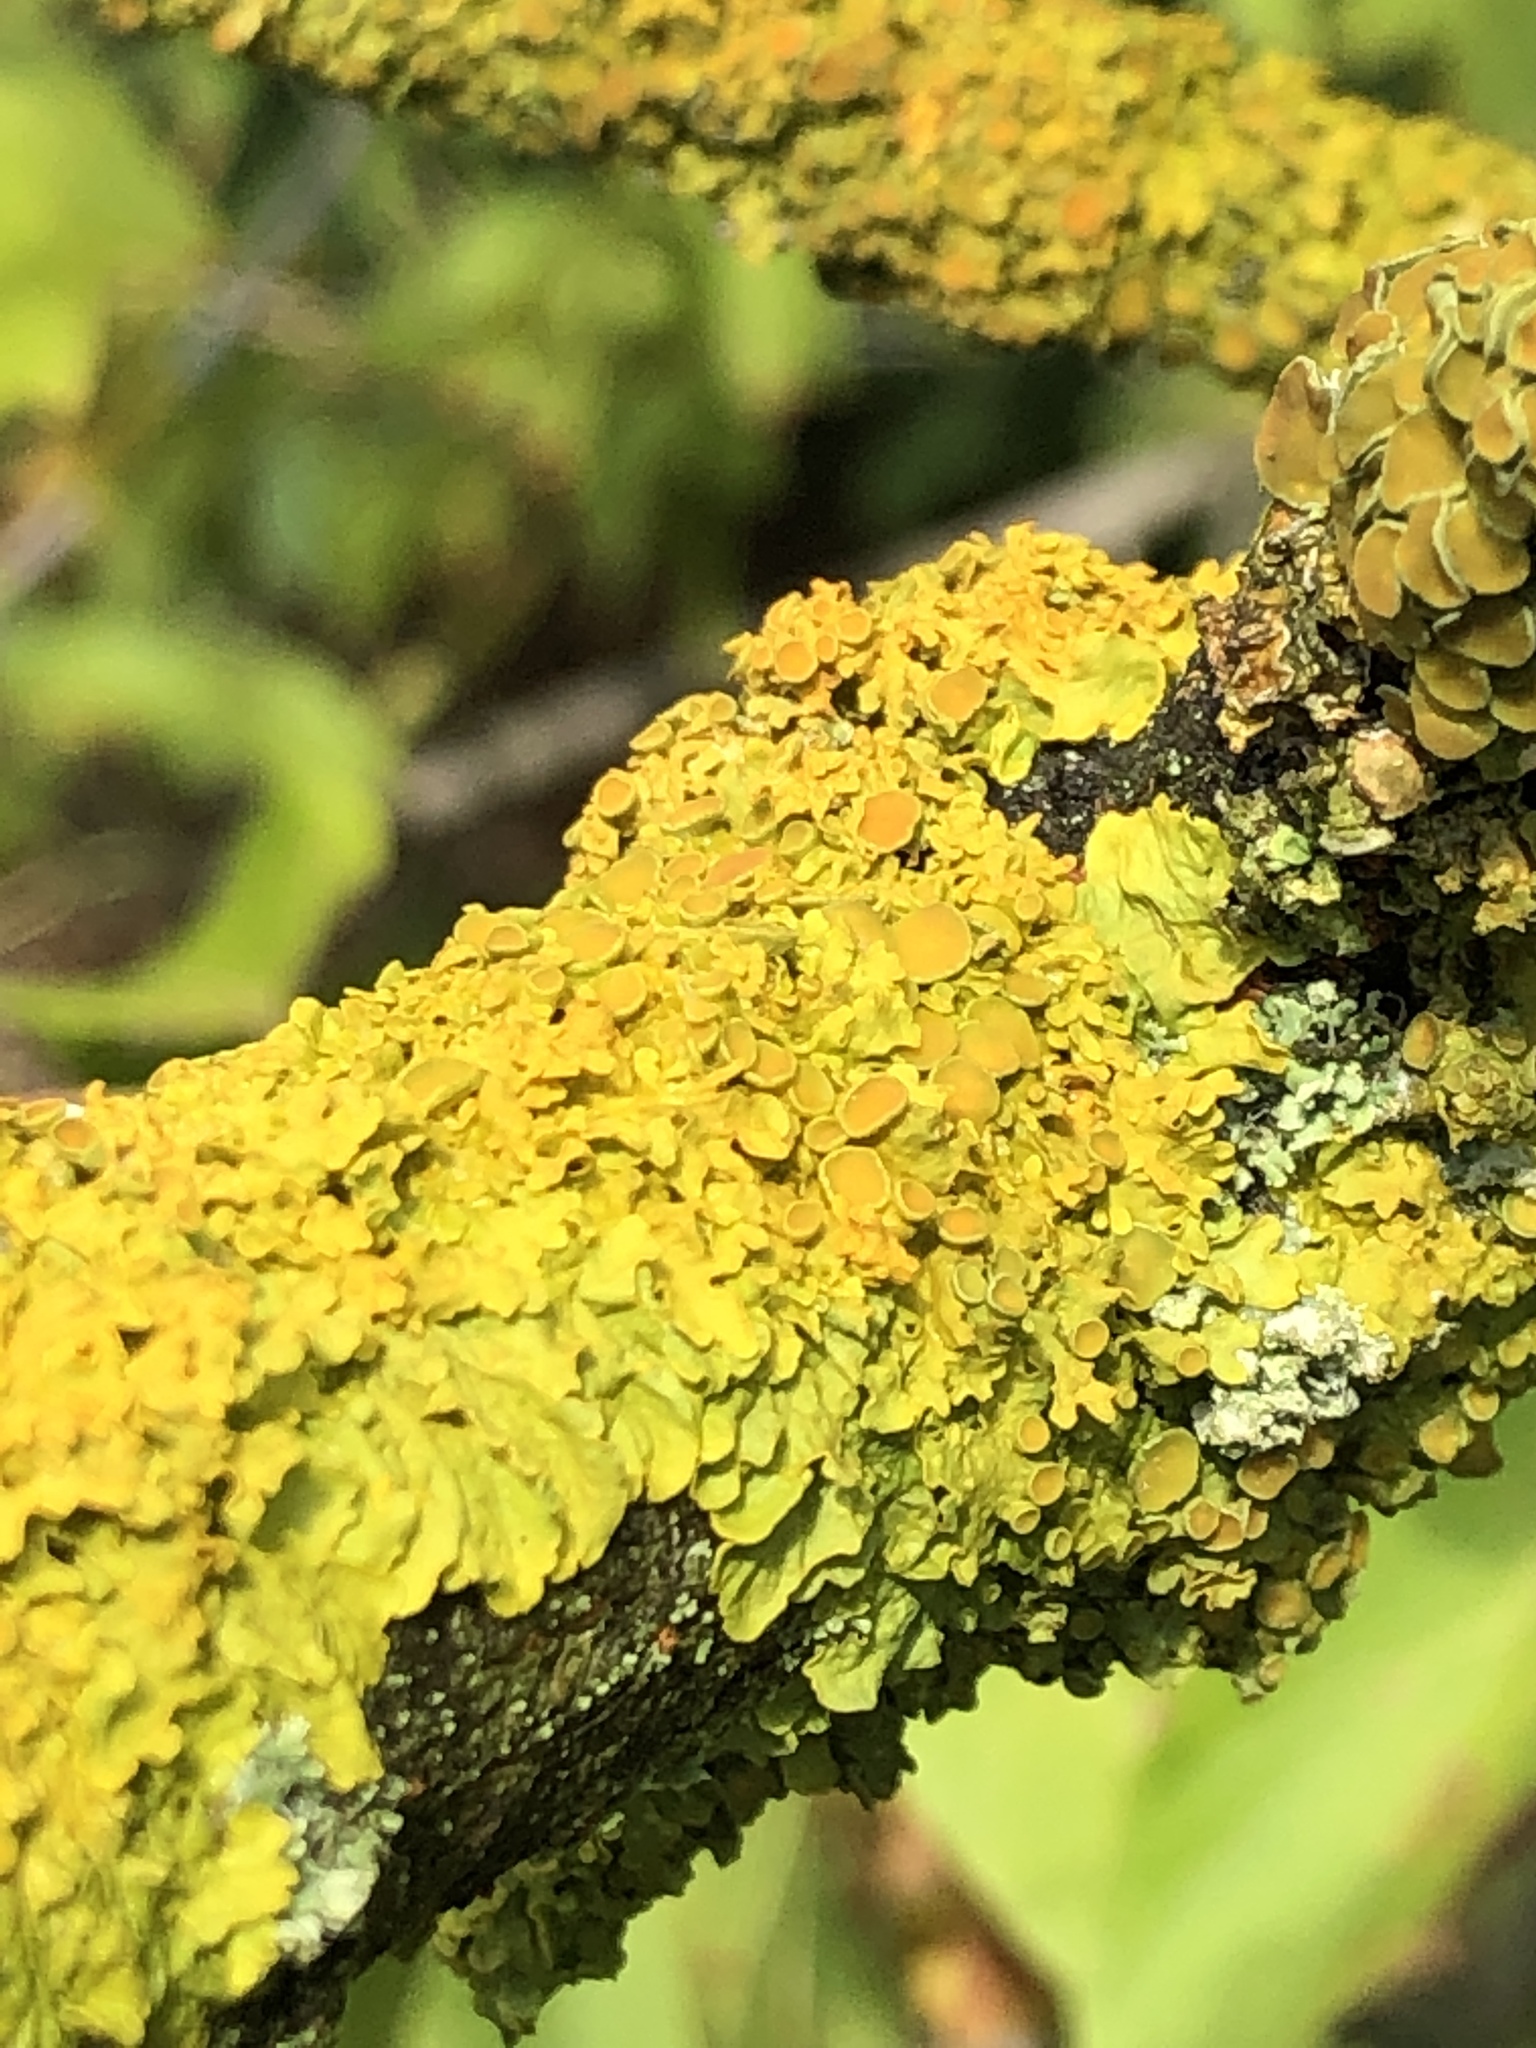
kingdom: Fungi
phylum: Ascomycota
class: Lecanoromycetes
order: Teloschistales
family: Teloschistaceae
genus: Xanthoria
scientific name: Xanthoria parietina
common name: Common orange lichen
